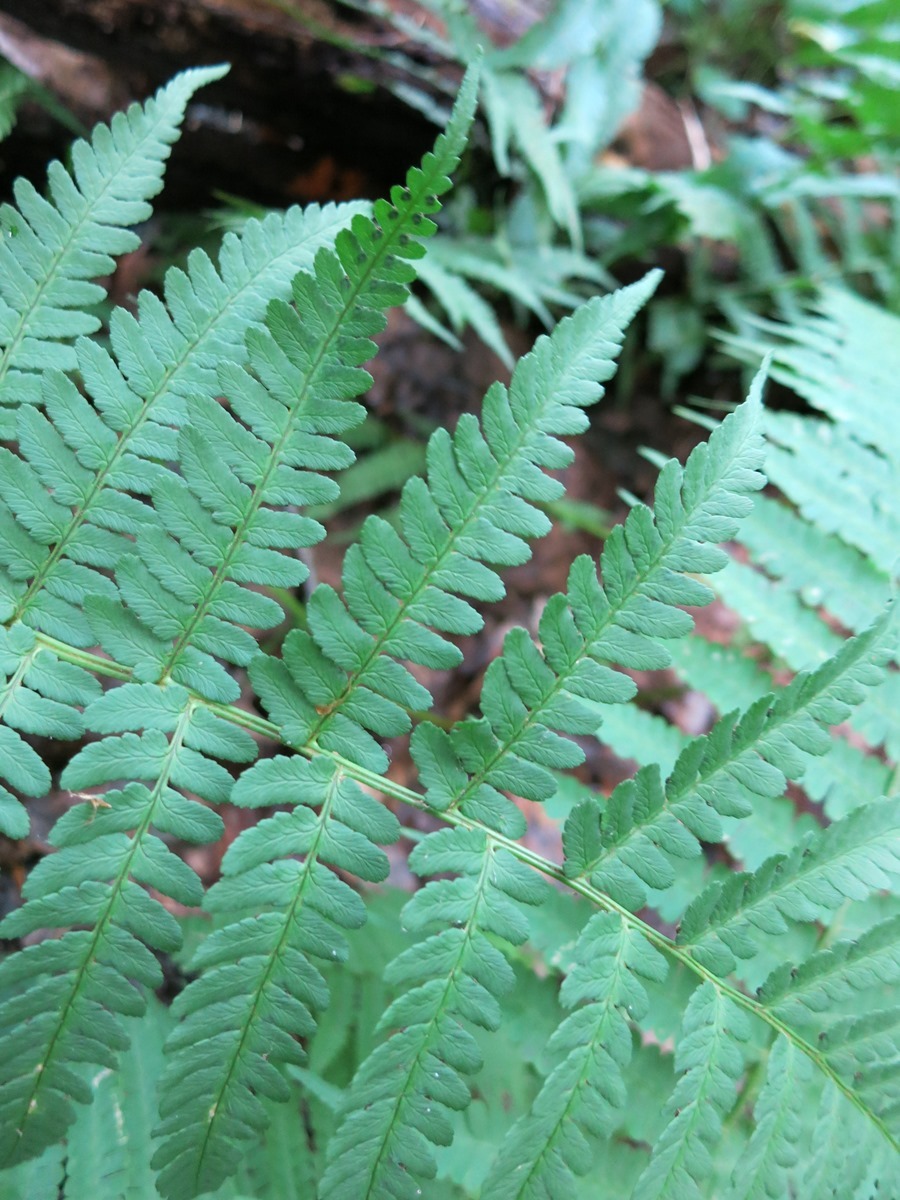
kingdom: Plantae
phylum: Tracheophyta
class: Polypodiopsida
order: Polypodiales
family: Athyriaceae
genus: Deparia
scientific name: Deparia acrostichoides
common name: Silver false spleenwort
